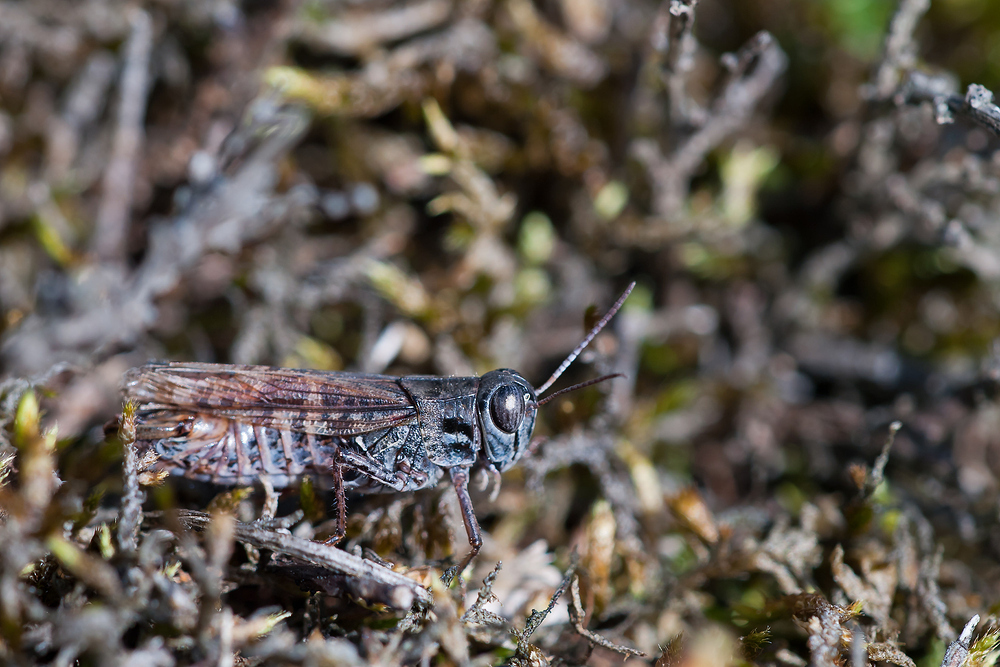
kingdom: Animalia
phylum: Arthropoda
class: Insecta
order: Orthoptera
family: Acrididae
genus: Calliptamus
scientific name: Calliptamus italicus
